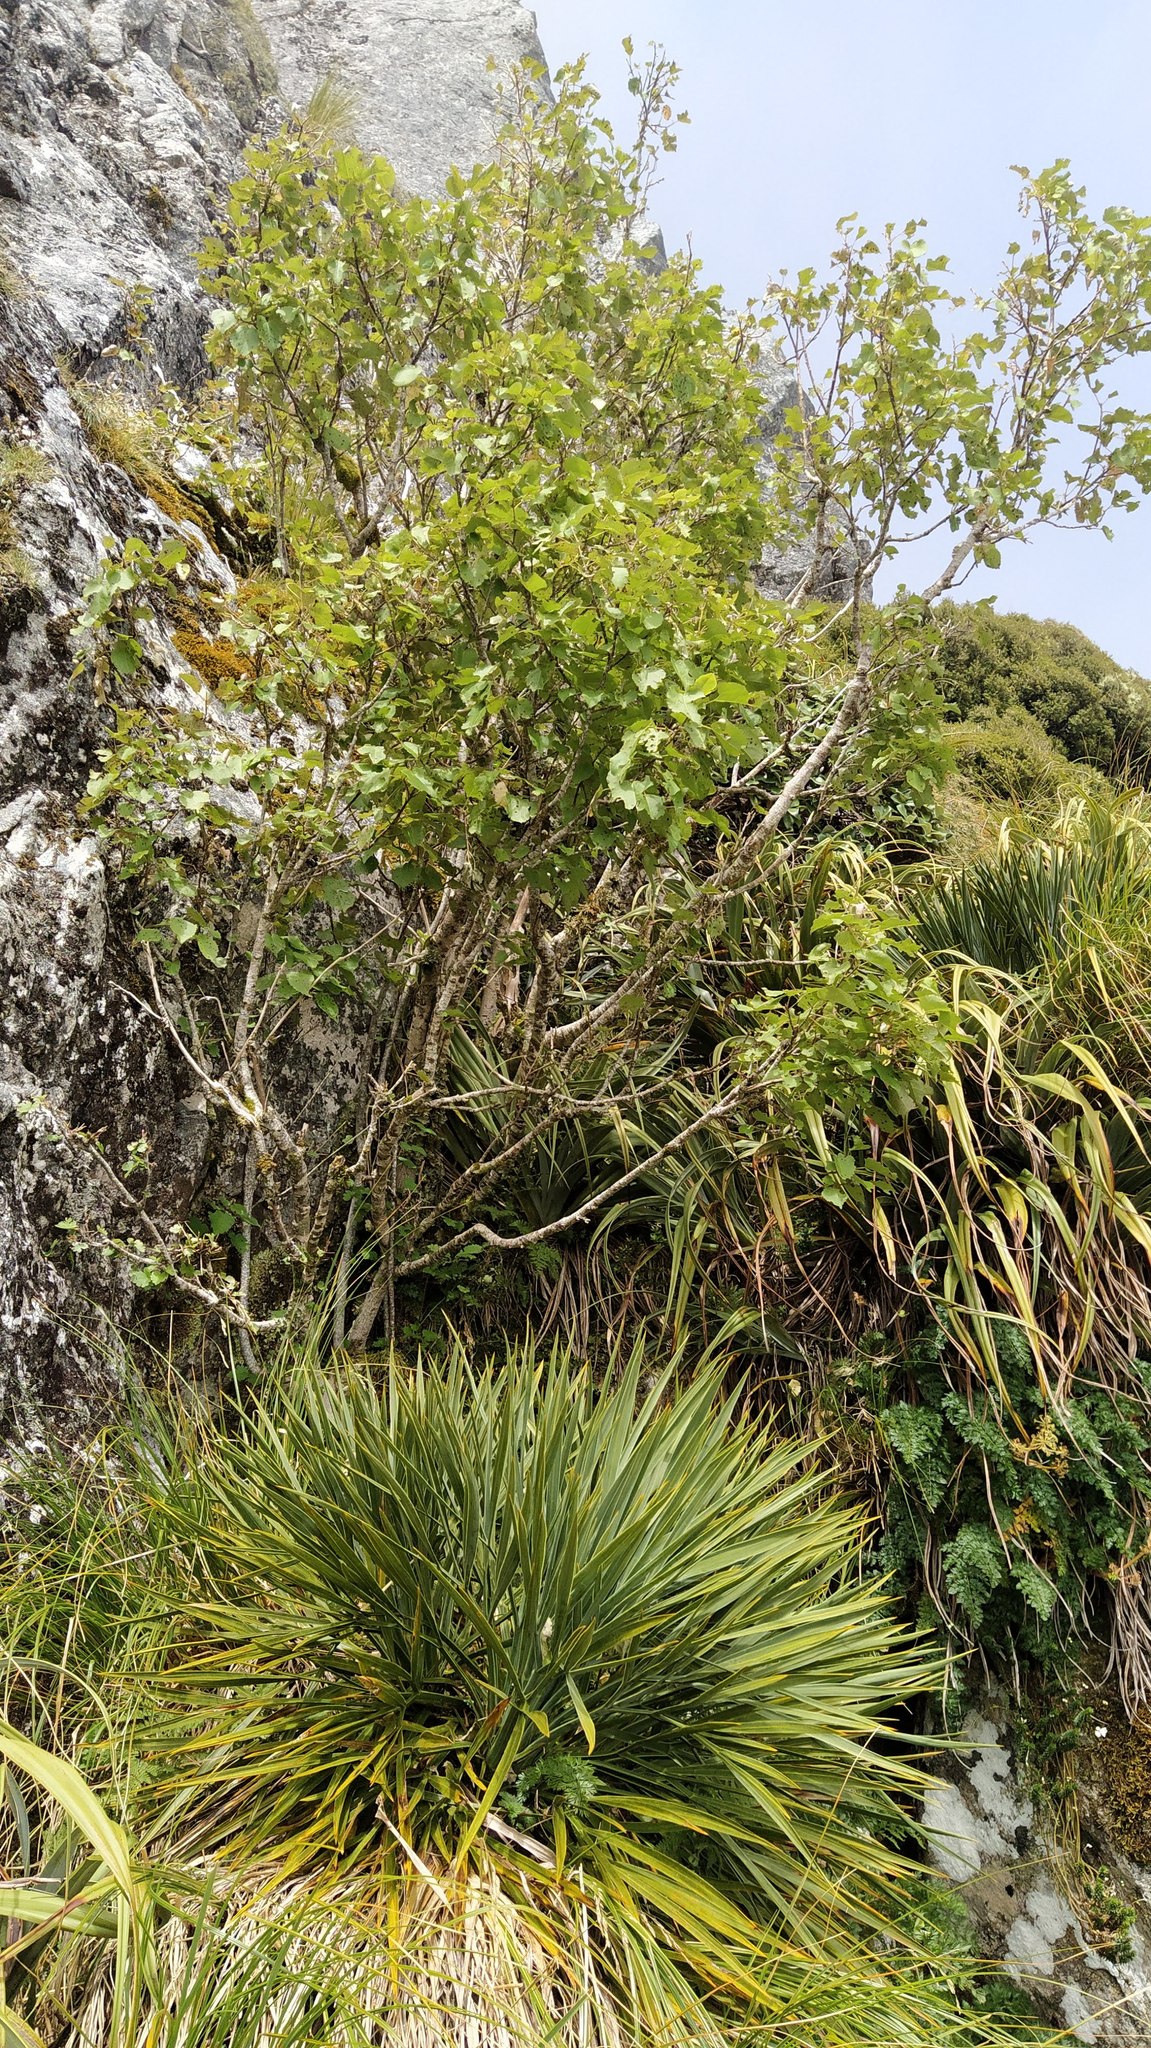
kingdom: Plantae
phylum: Tracheophyta
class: Magnoliopsida
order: Malvales
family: Malvaceae
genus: Hoheria
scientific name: Hoheria glabrata
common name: Mountain-ribbon
